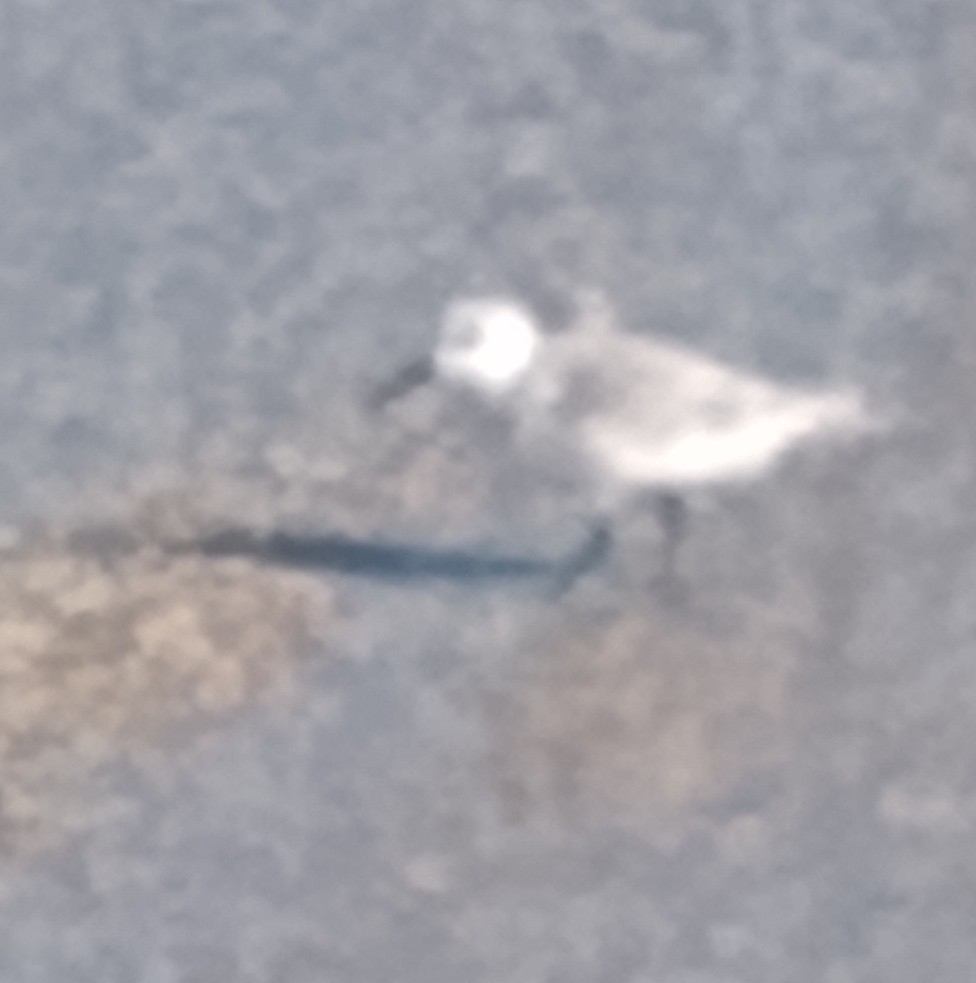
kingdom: Animalia
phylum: Chordata
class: Aves
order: Charadriiformes
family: Scolopacidae
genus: Calidris
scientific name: Calidris alba
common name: Sanderling
